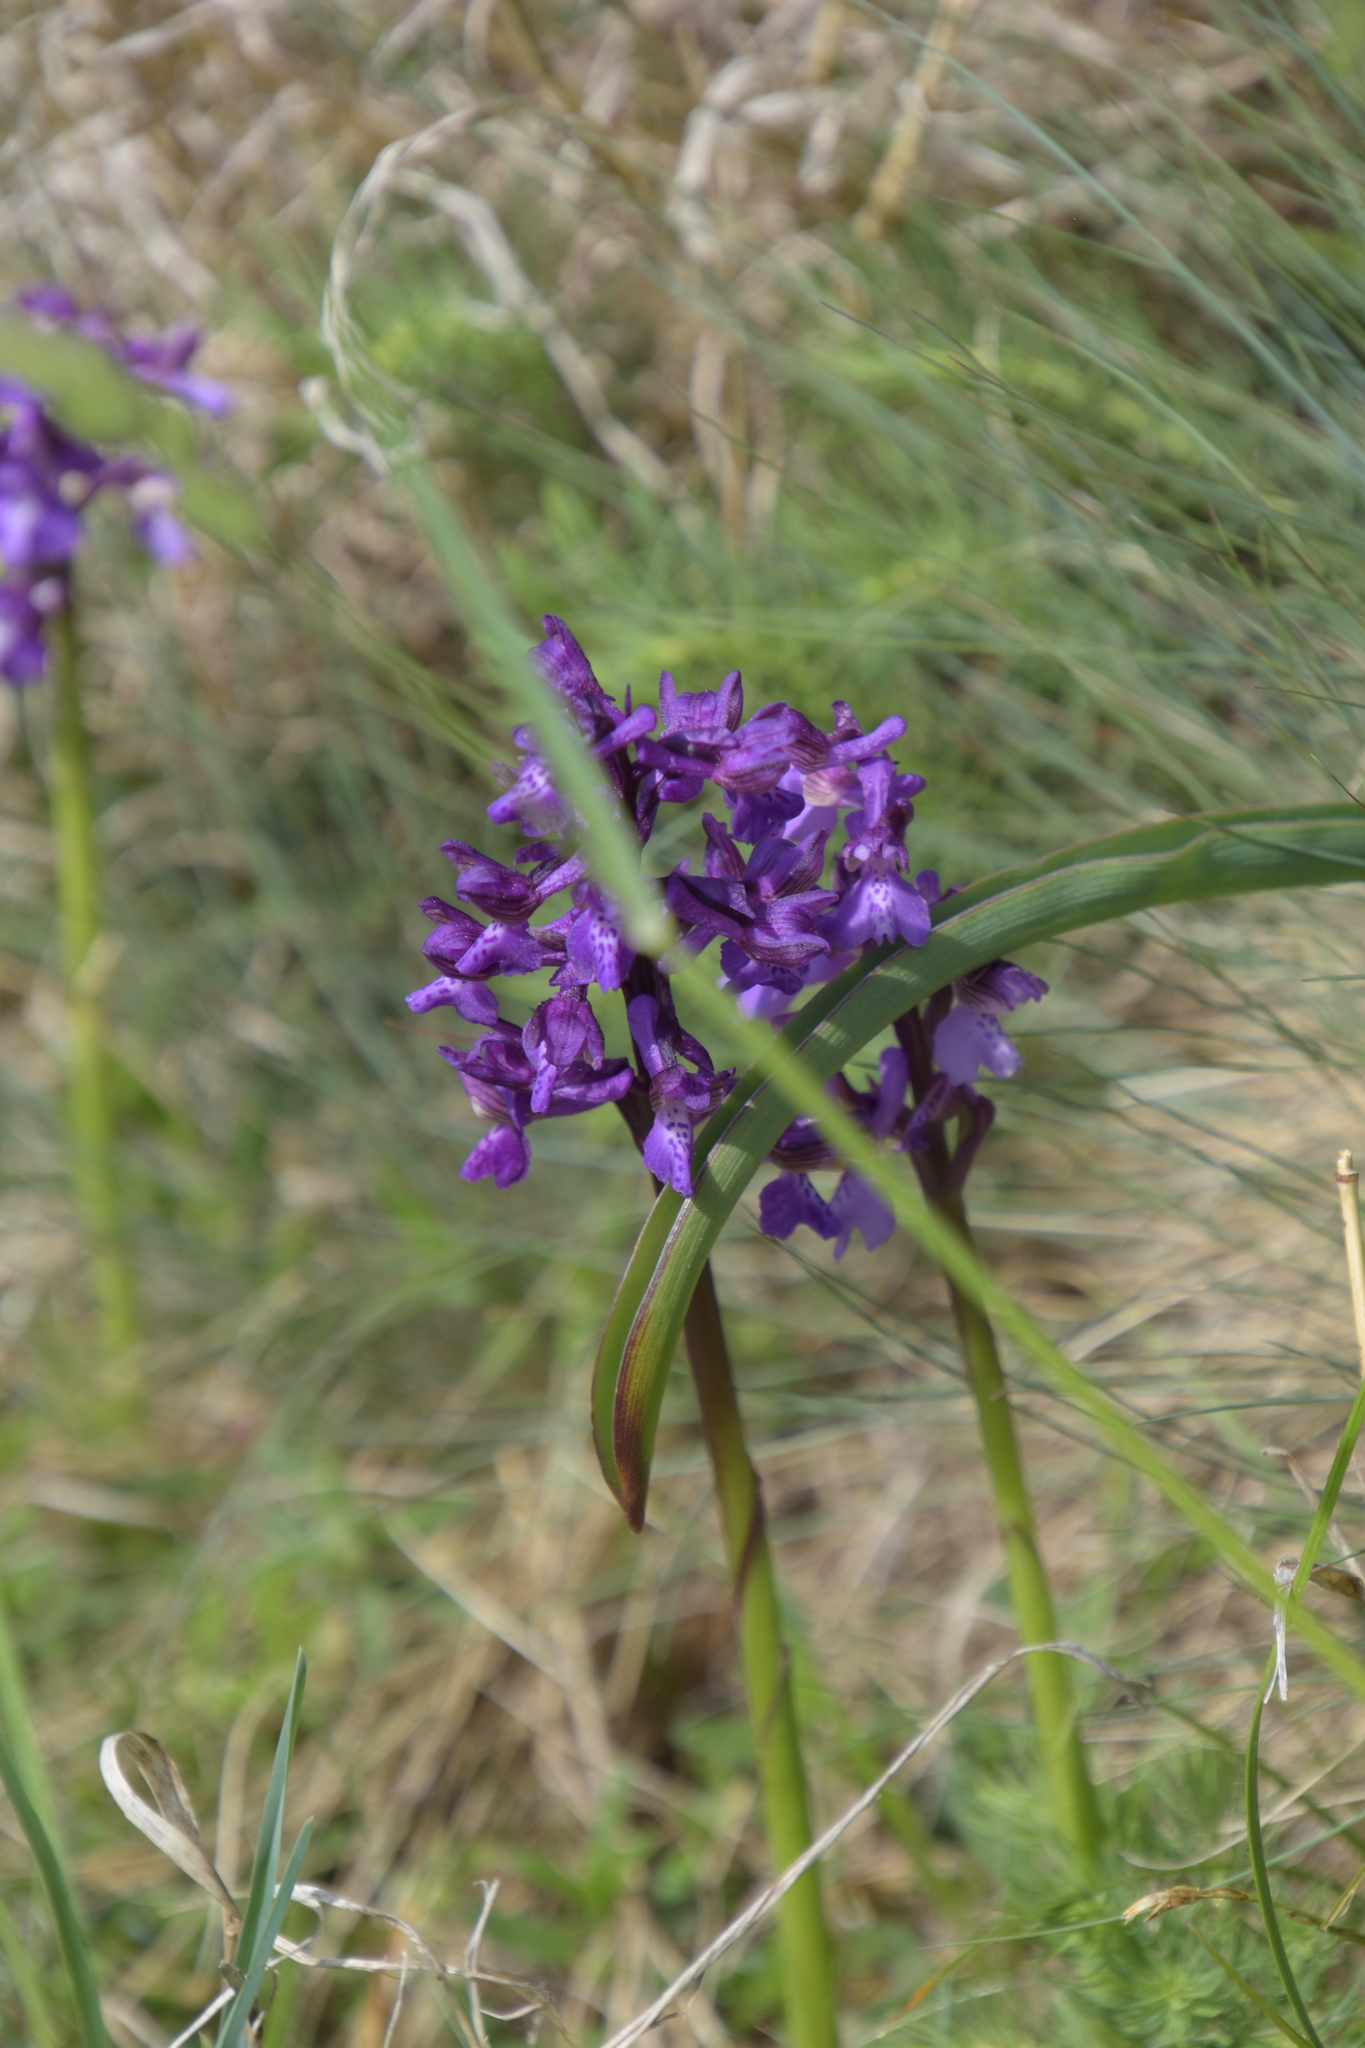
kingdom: Plantae
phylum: Tracheophyta
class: Liliopsida
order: Asparagales
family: Orchidaceae
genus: Anacamptis
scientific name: Anacamptis morio
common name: Green-winged orchid
